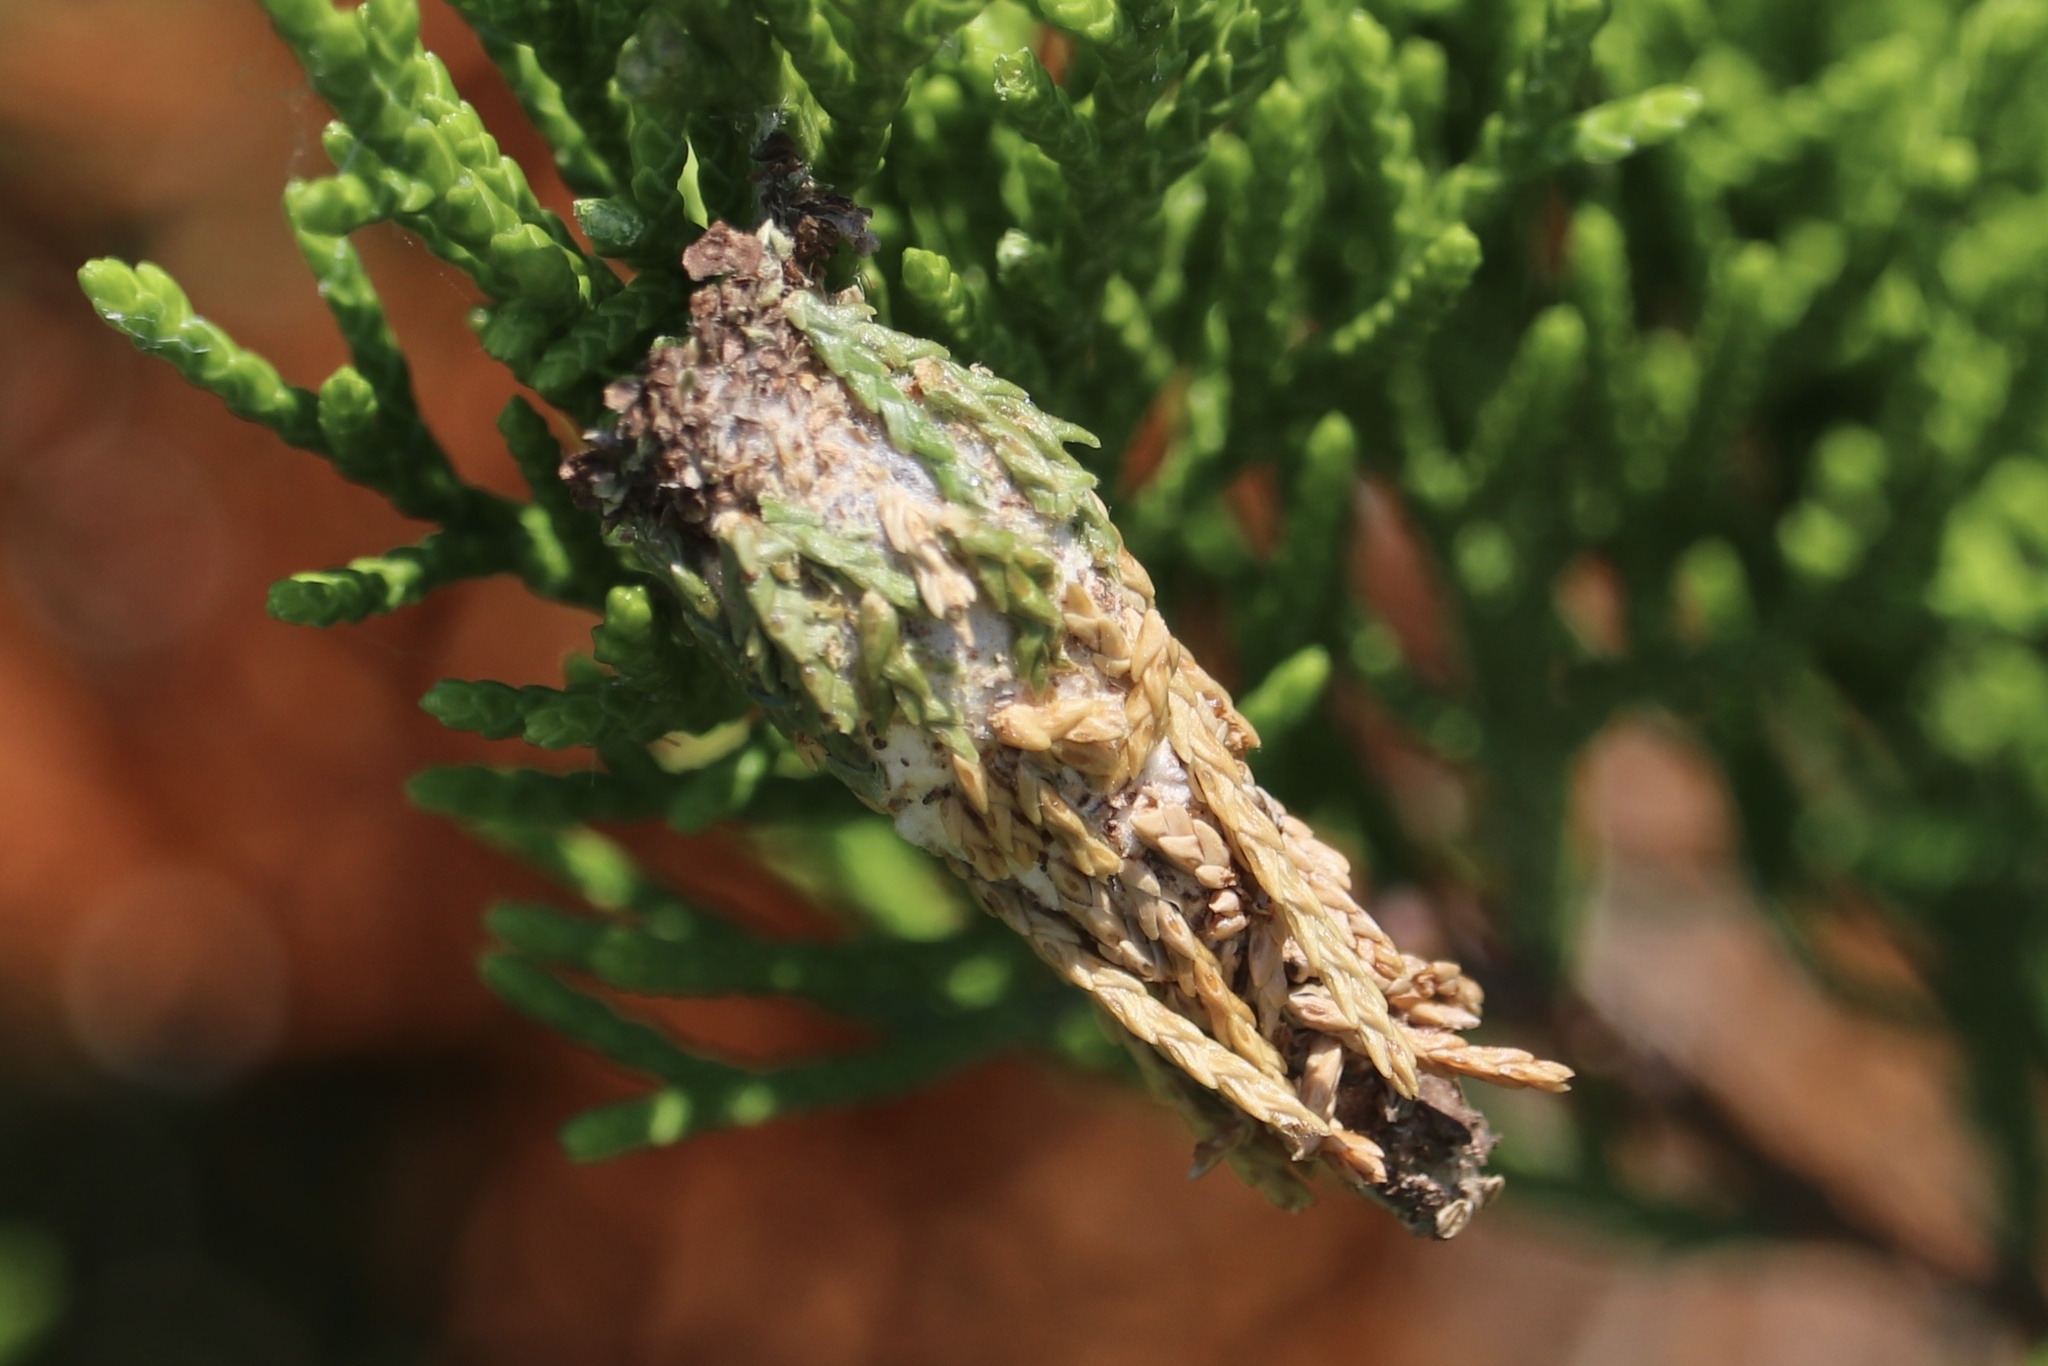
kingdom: Animalia
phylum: Arthropoda
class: Insecta
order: Lepidoptera
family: Psychidae
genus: Thyridopteryx
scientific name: Thyridopteryx ephemeraeformis
